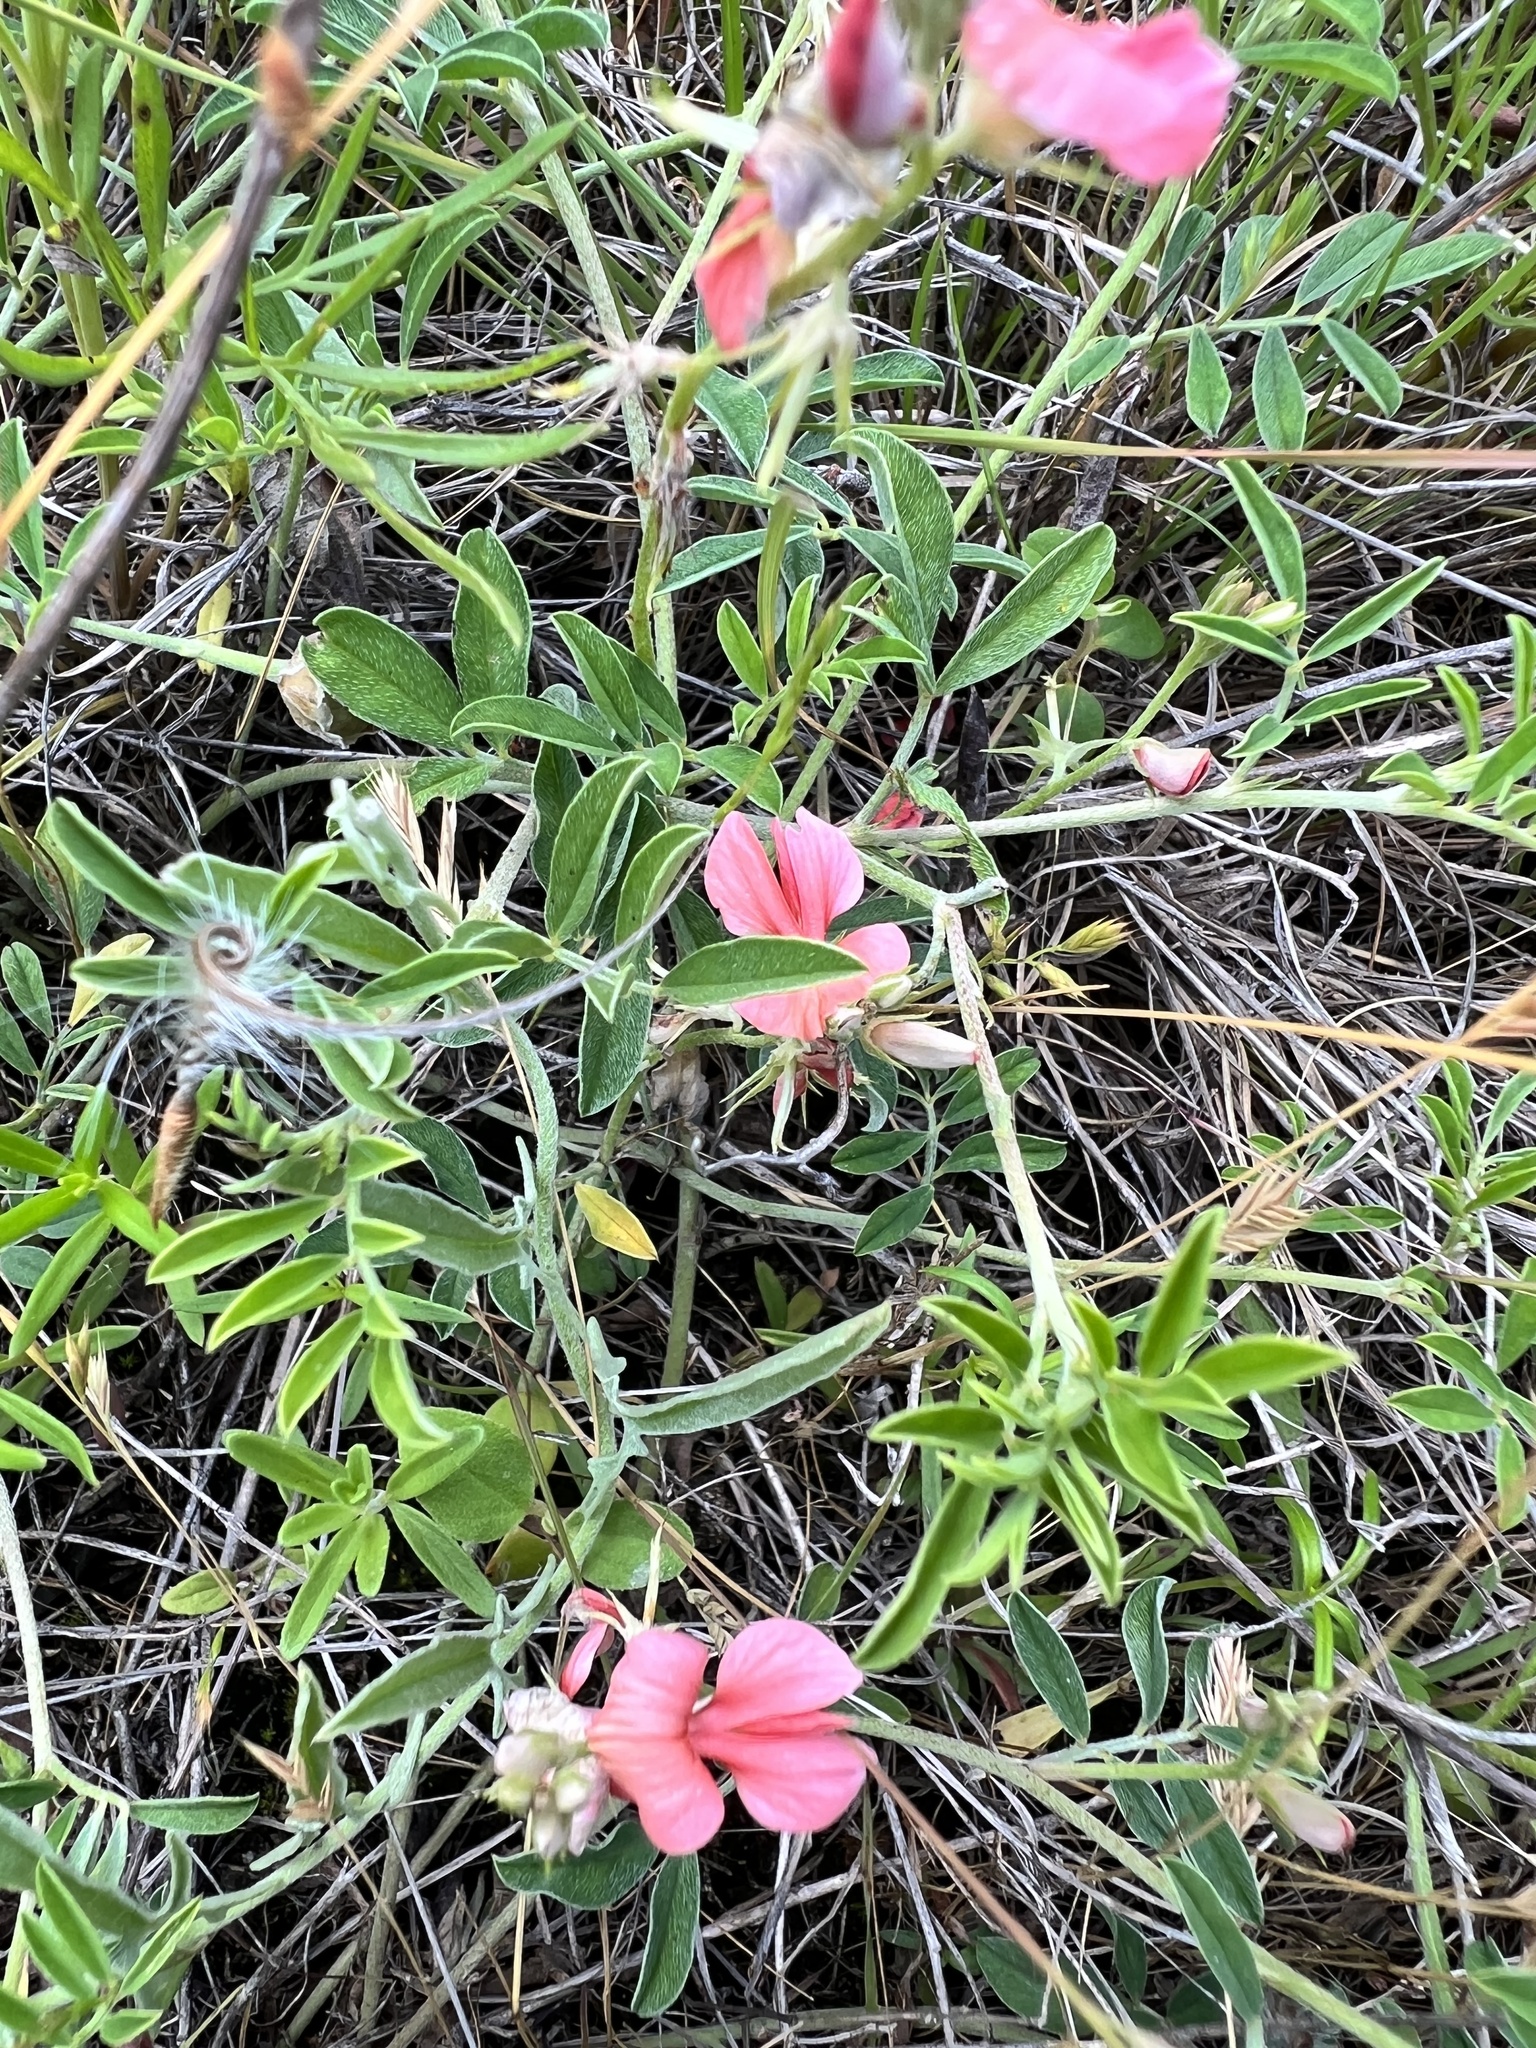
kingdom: Plantae
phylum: Tracheophyta
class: Magnoliopsida
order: Fabales
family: Fabaceae
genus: Indigofera
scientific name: Indigofera miniata
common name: Coast indigo
